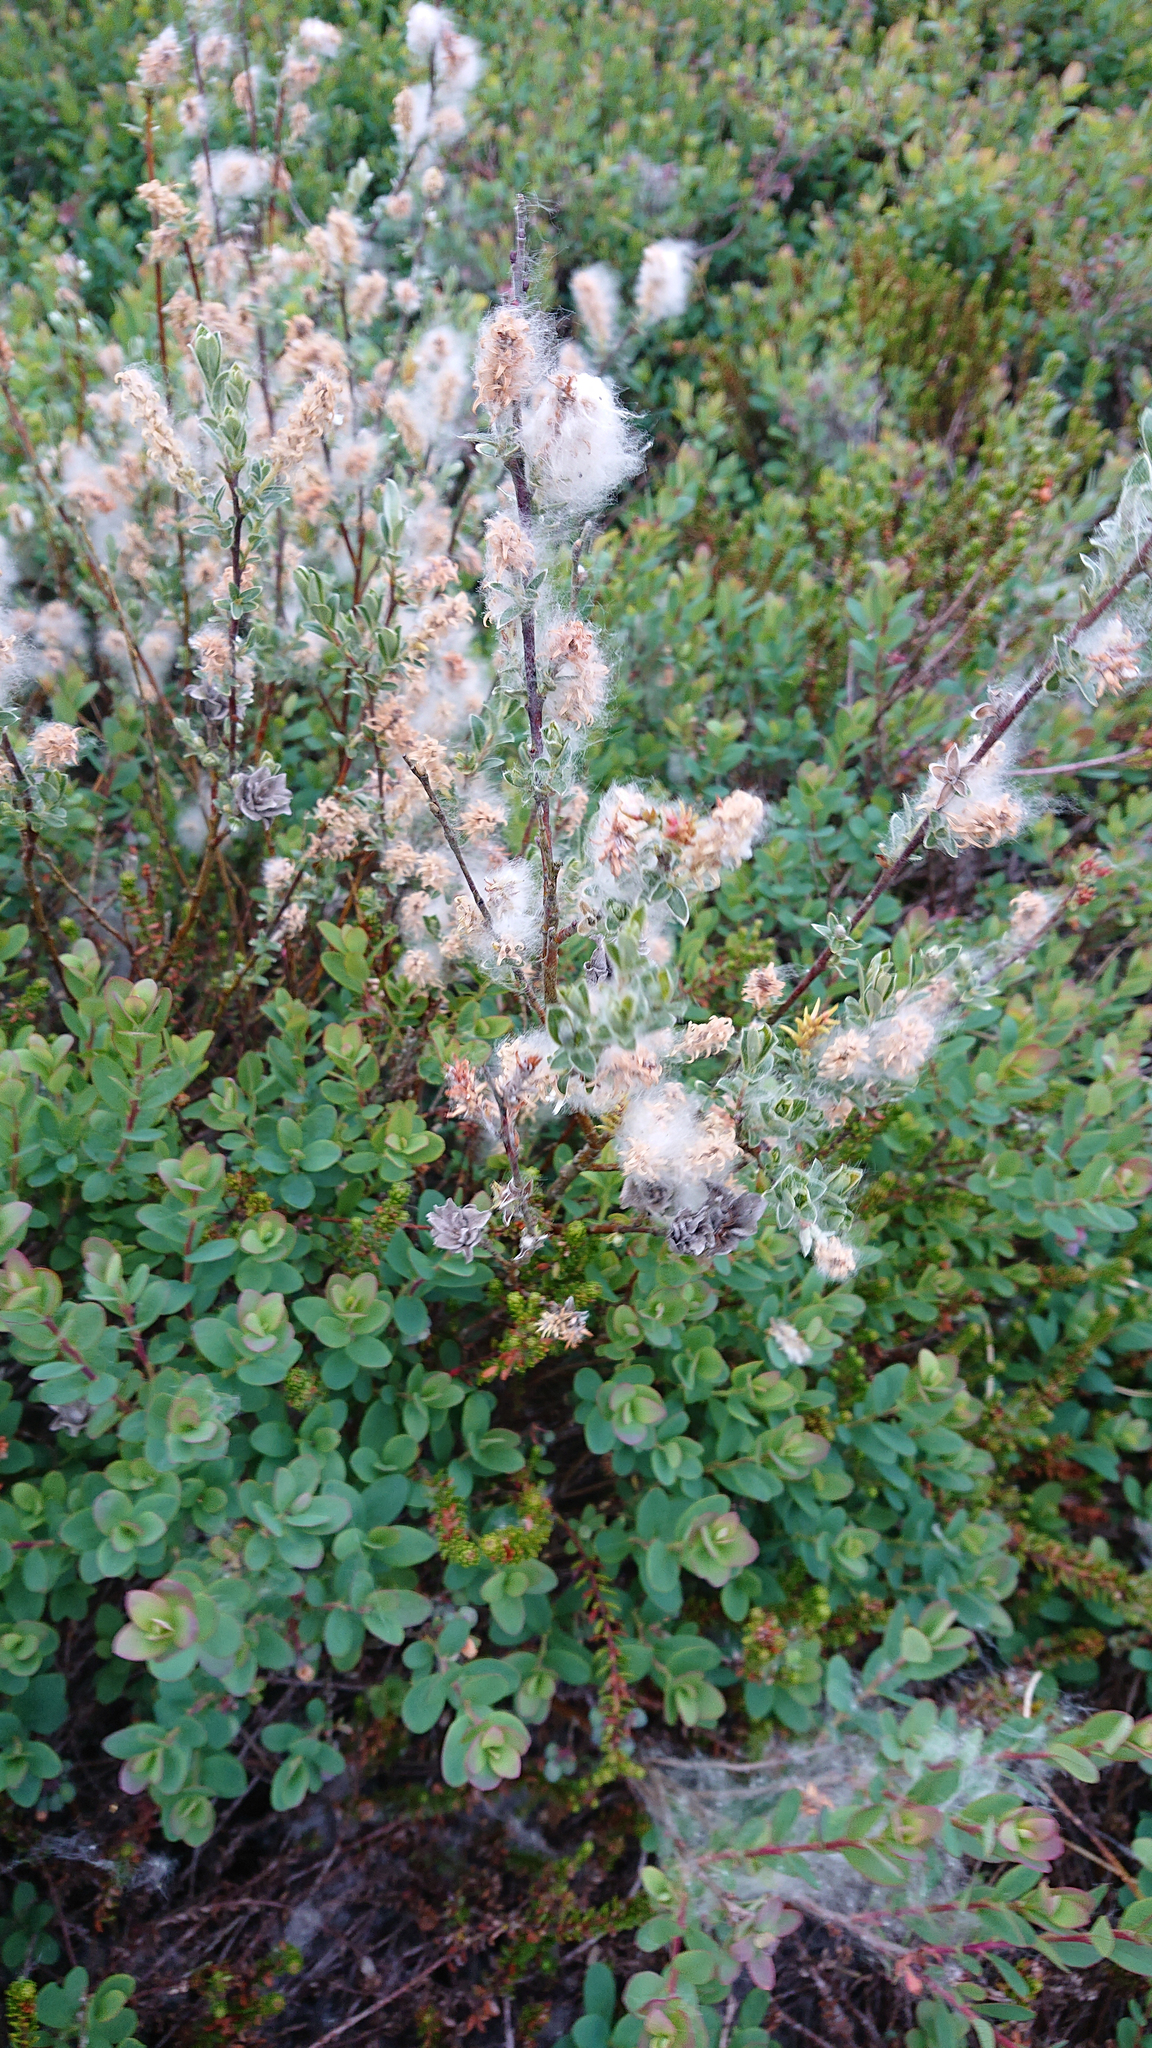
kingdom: Plantae
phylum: Tracheophyta
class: Magnoliopsida
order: Malpighiales
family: Salicaceae
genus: Salix
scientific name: Salix repens
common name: Creeping willow
